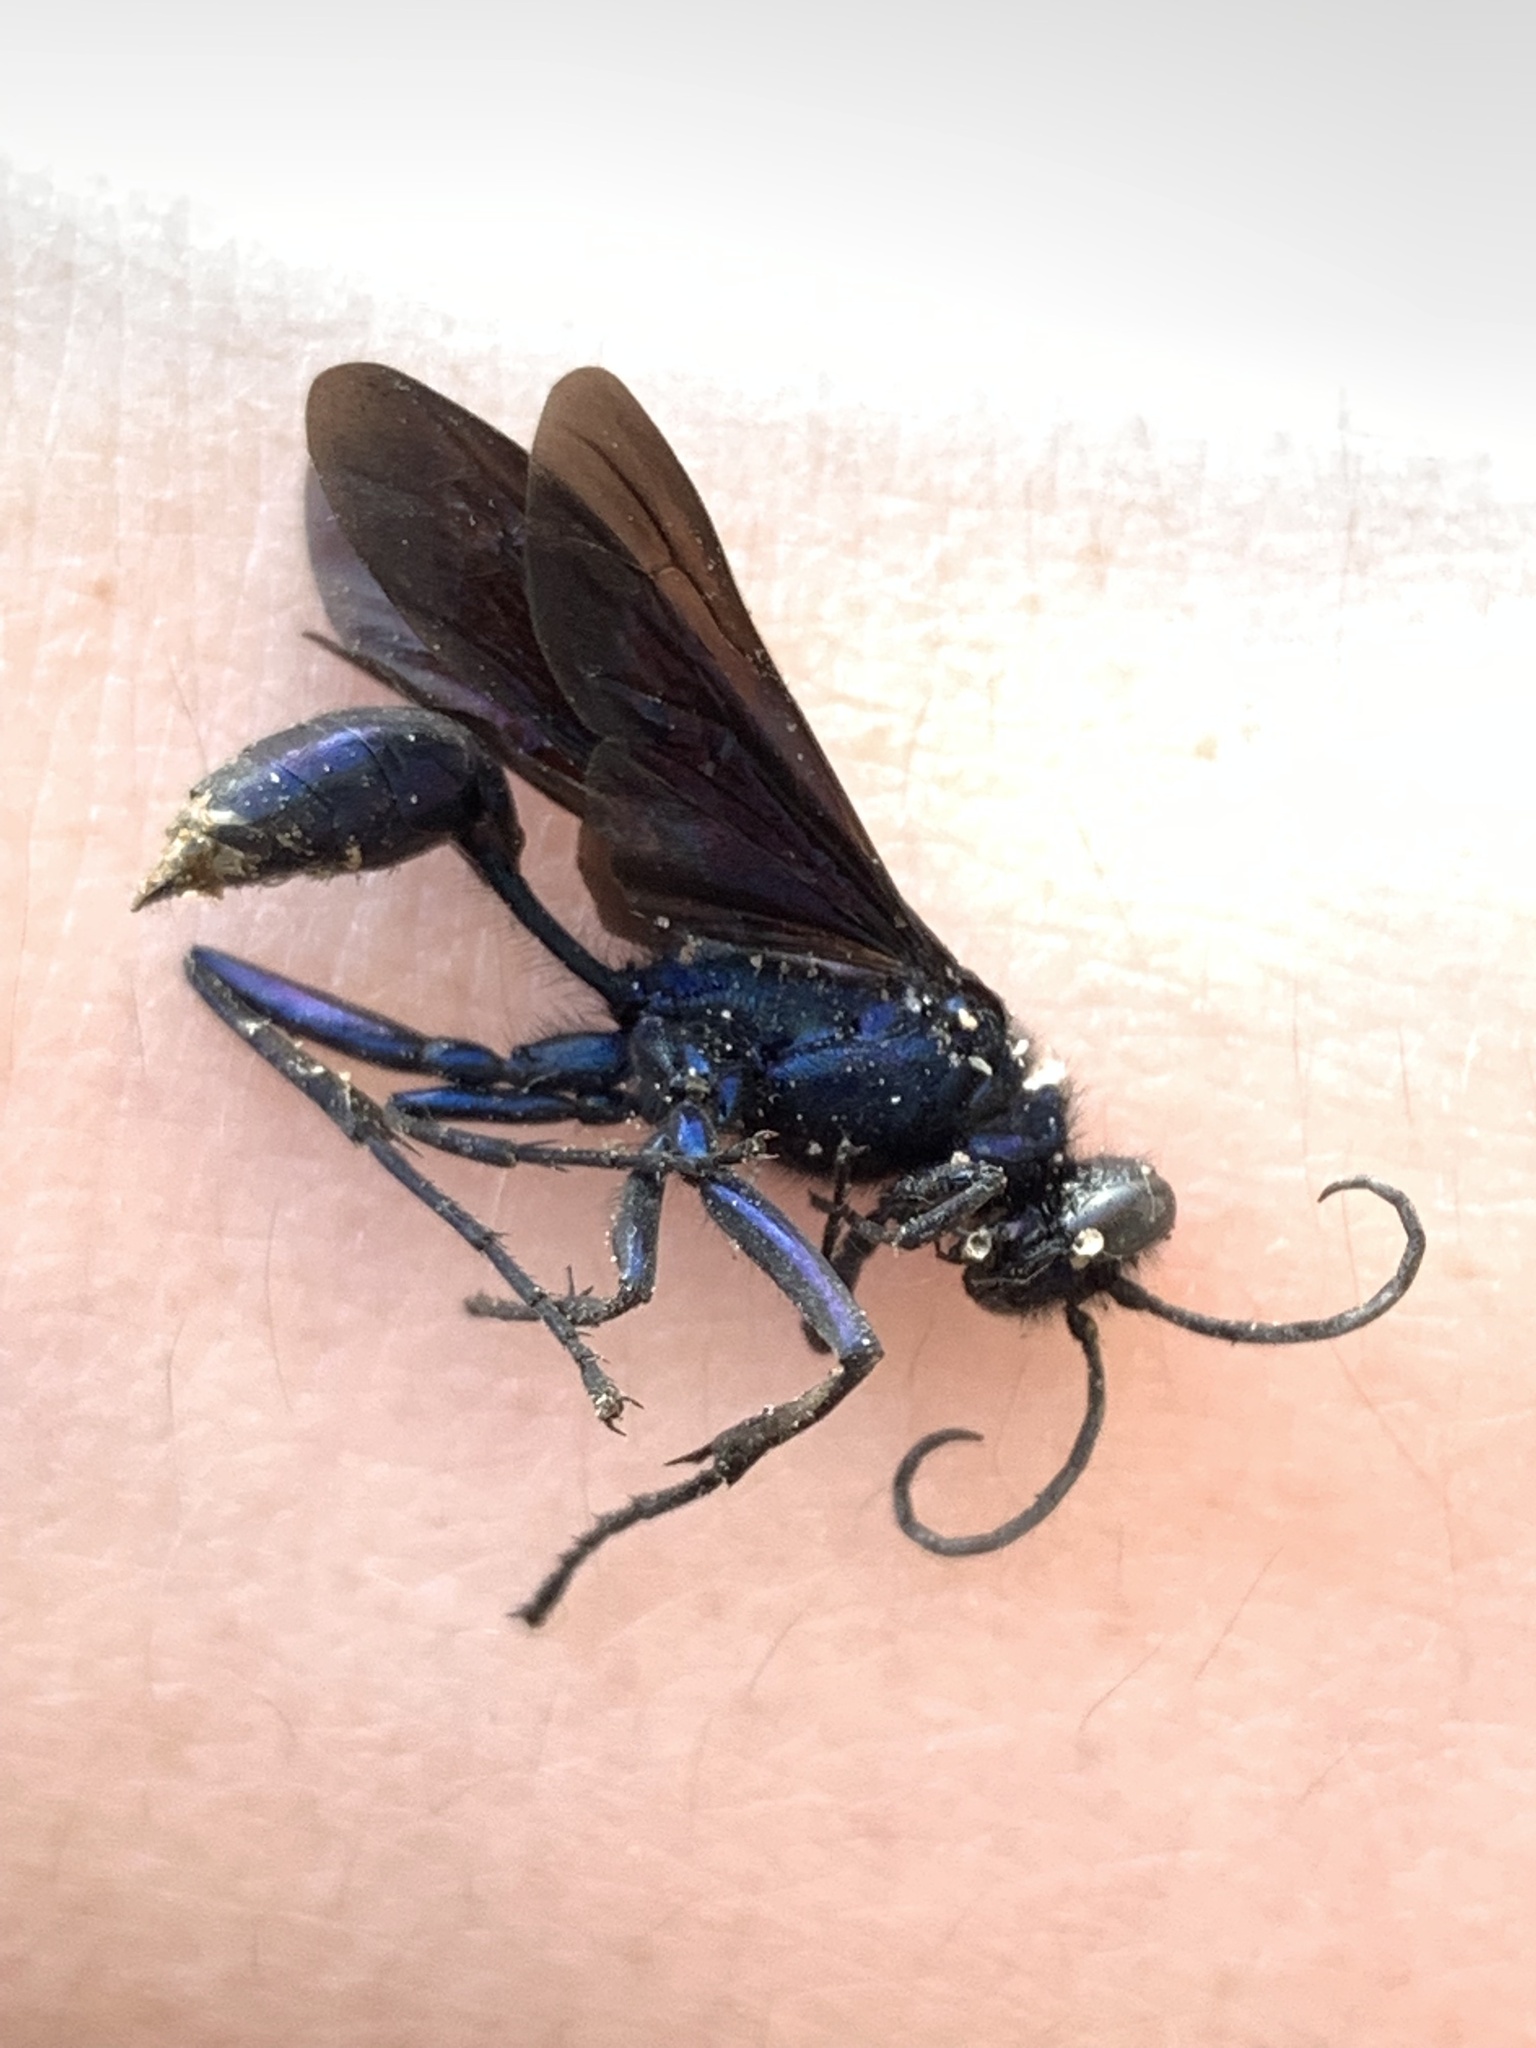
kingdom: Animalia
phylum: Arthropoda
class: Insecta
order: Hymenoptera
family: Sphecidae
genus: Chalybion
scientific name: Chalybion californicum
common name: Mud dauber
